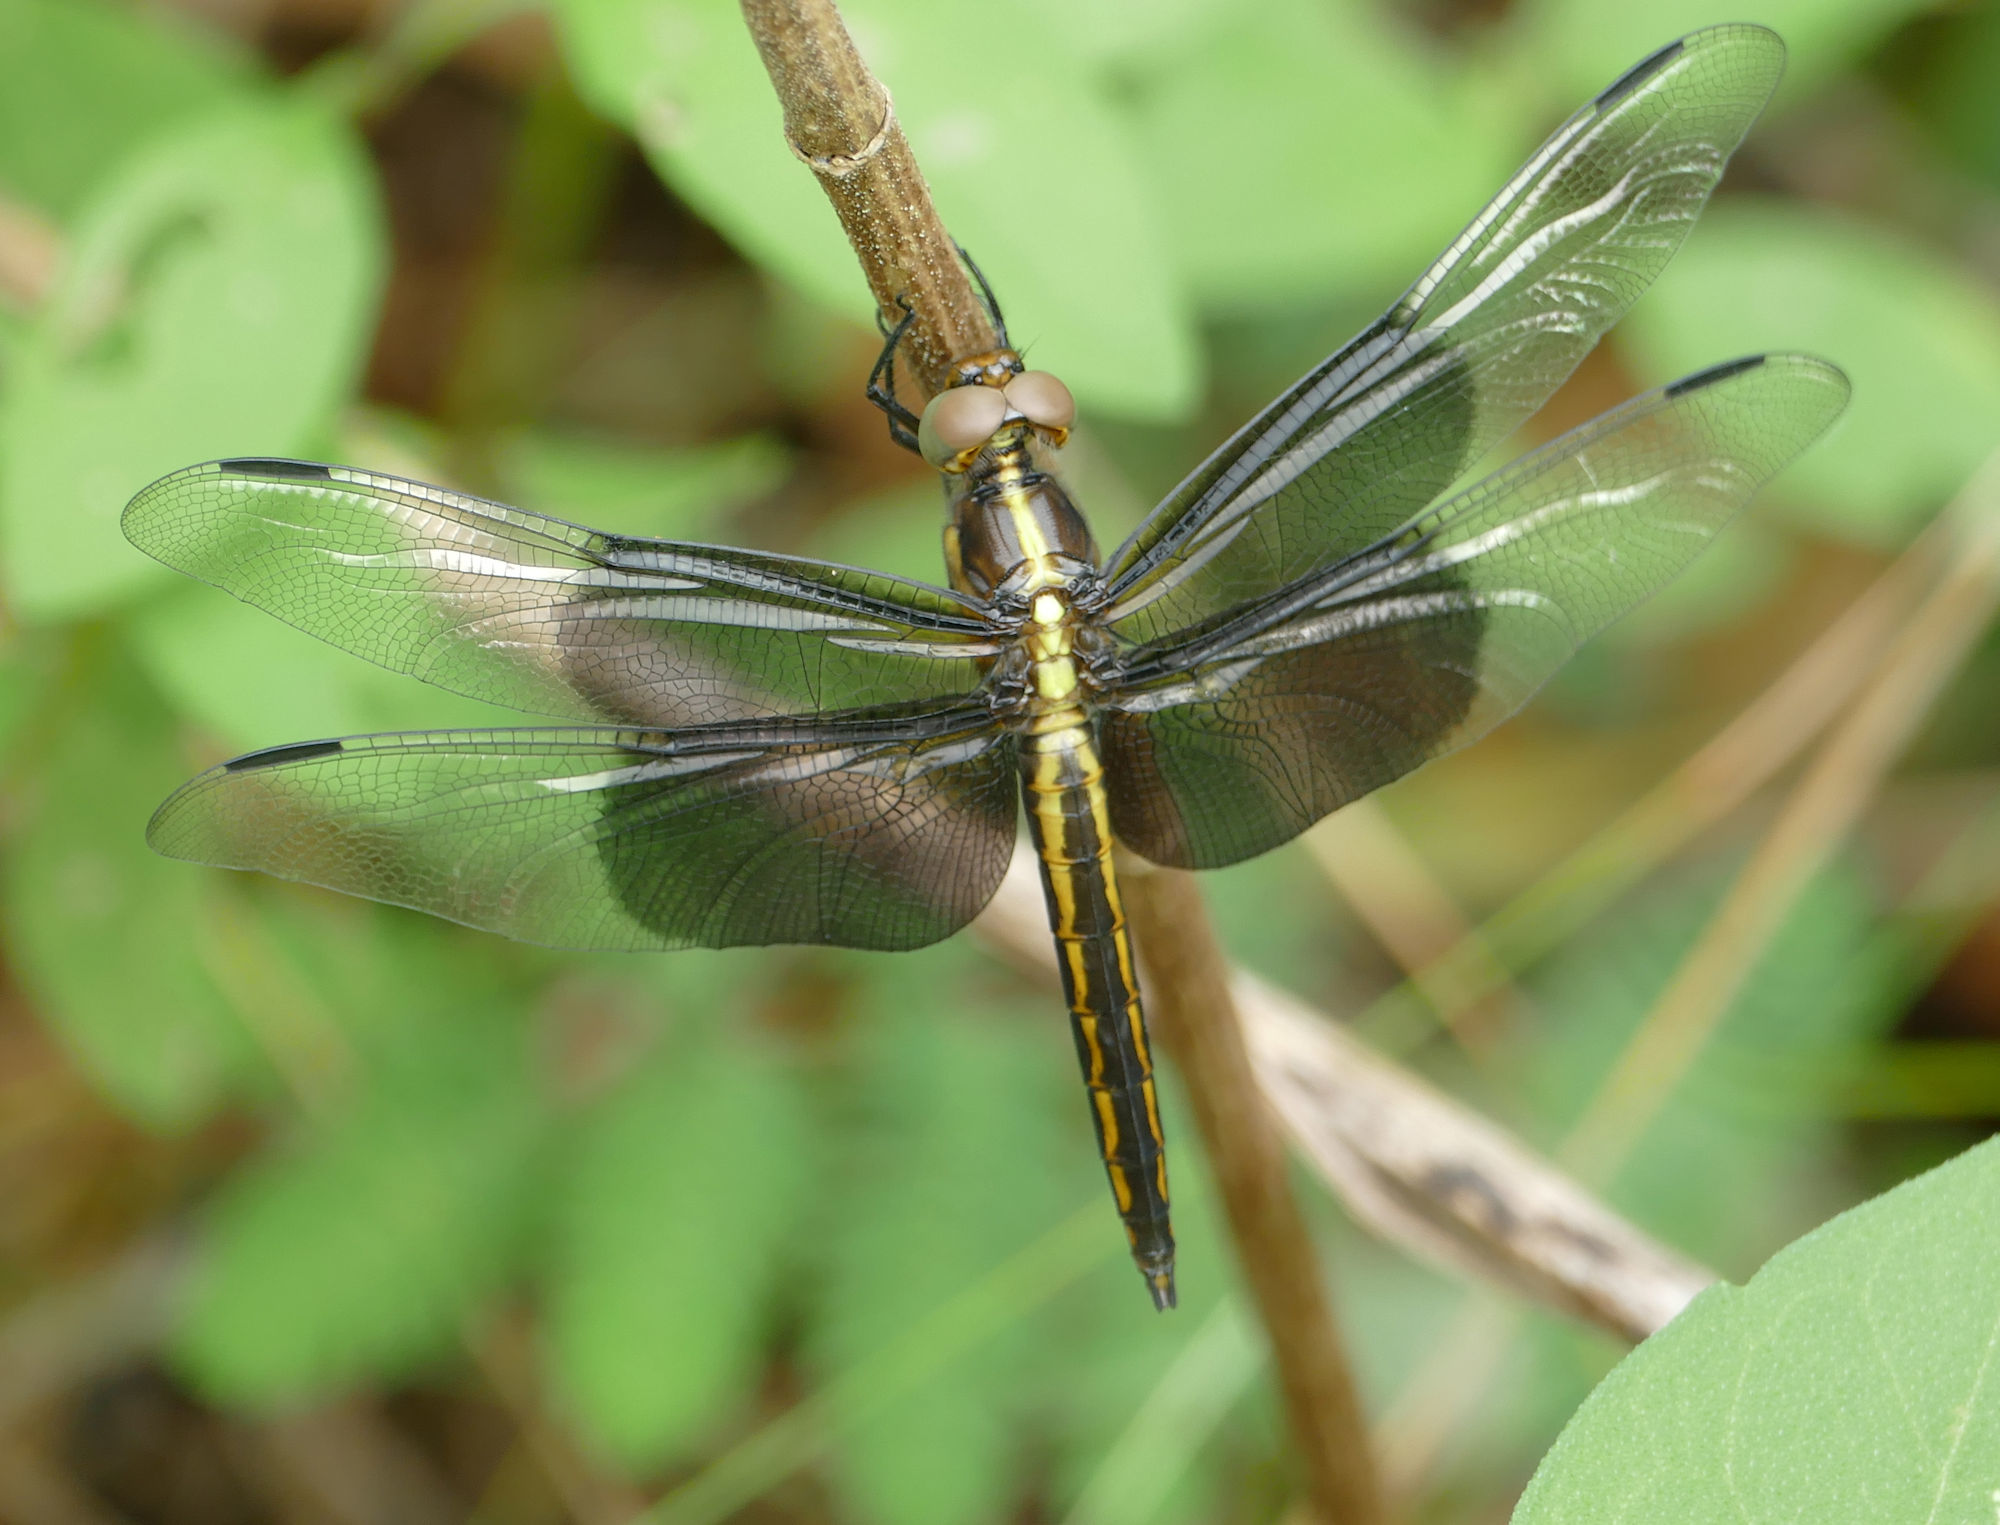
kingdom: Animalia
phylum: Arthropoda
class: Insecta
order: Odonata
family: Libellulidae
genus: Libellula
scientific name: Libellula luctuosa
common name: Widow skimmer
